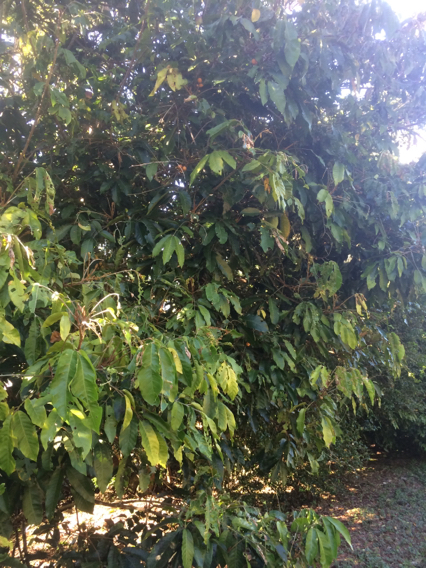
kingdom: Plantae
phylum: Tracheophyta
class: Magnoliopsida
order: Sapindales
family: Meliaceae
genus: Aglaia
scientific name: Aglaia mariannensis
